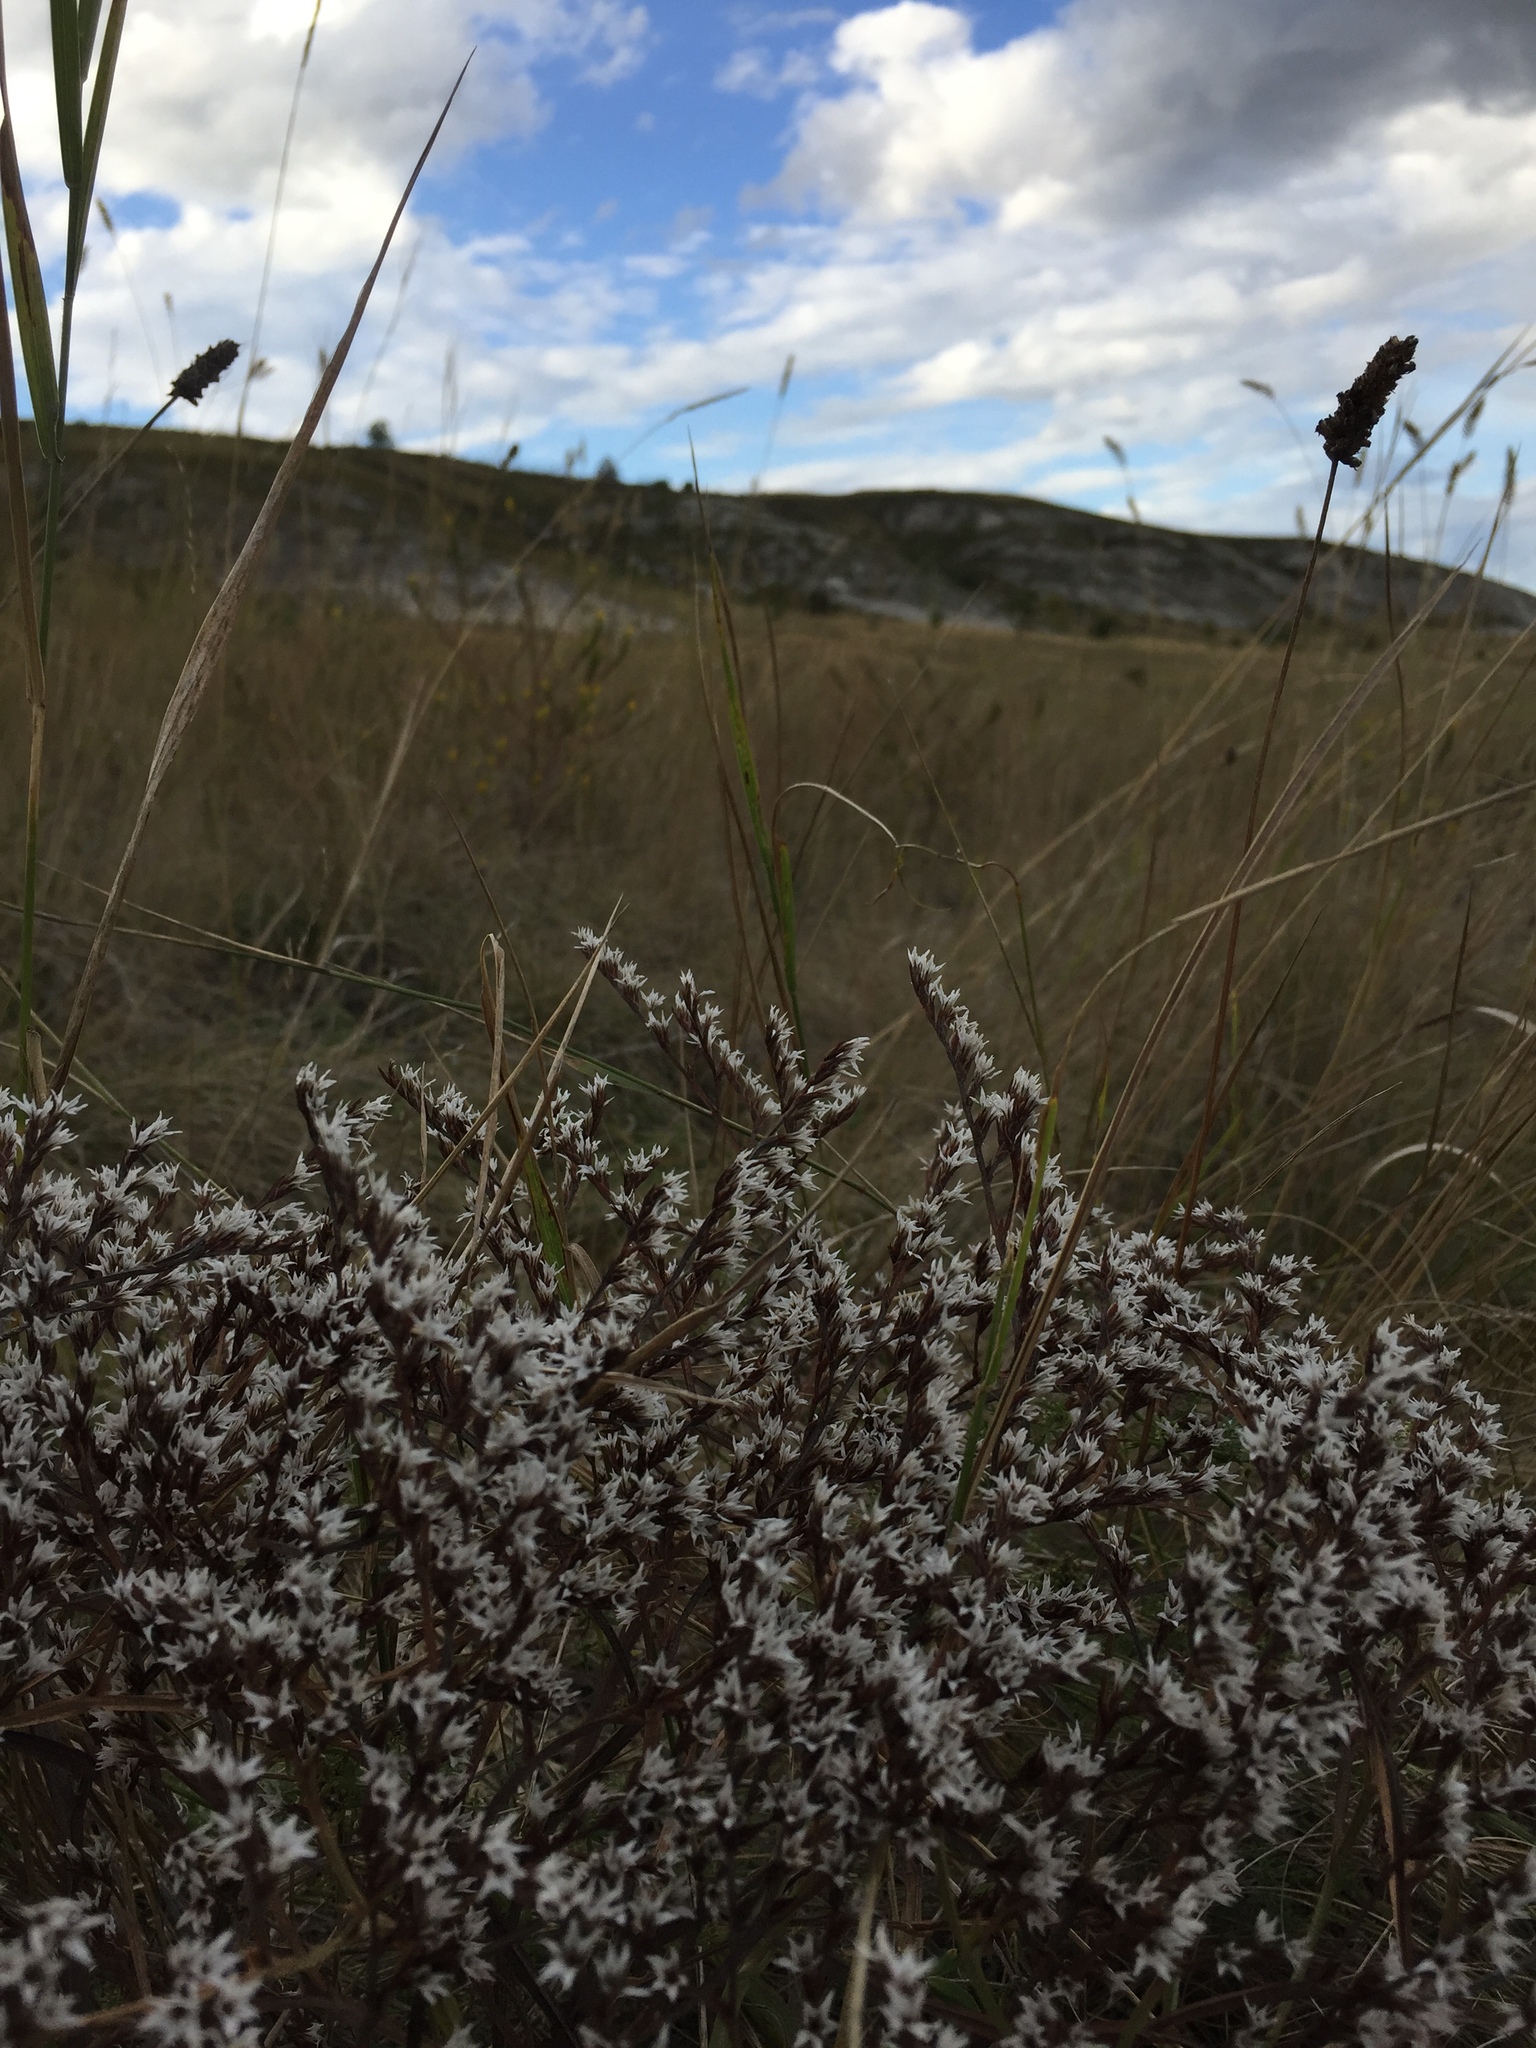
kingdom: Plantae
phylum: Tracheophyta
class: Magnoliopsida
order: Caryophyllales
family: Plumbaginaceae
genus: Goniolimon
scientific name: Goniolimon tataricum
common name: Statice
